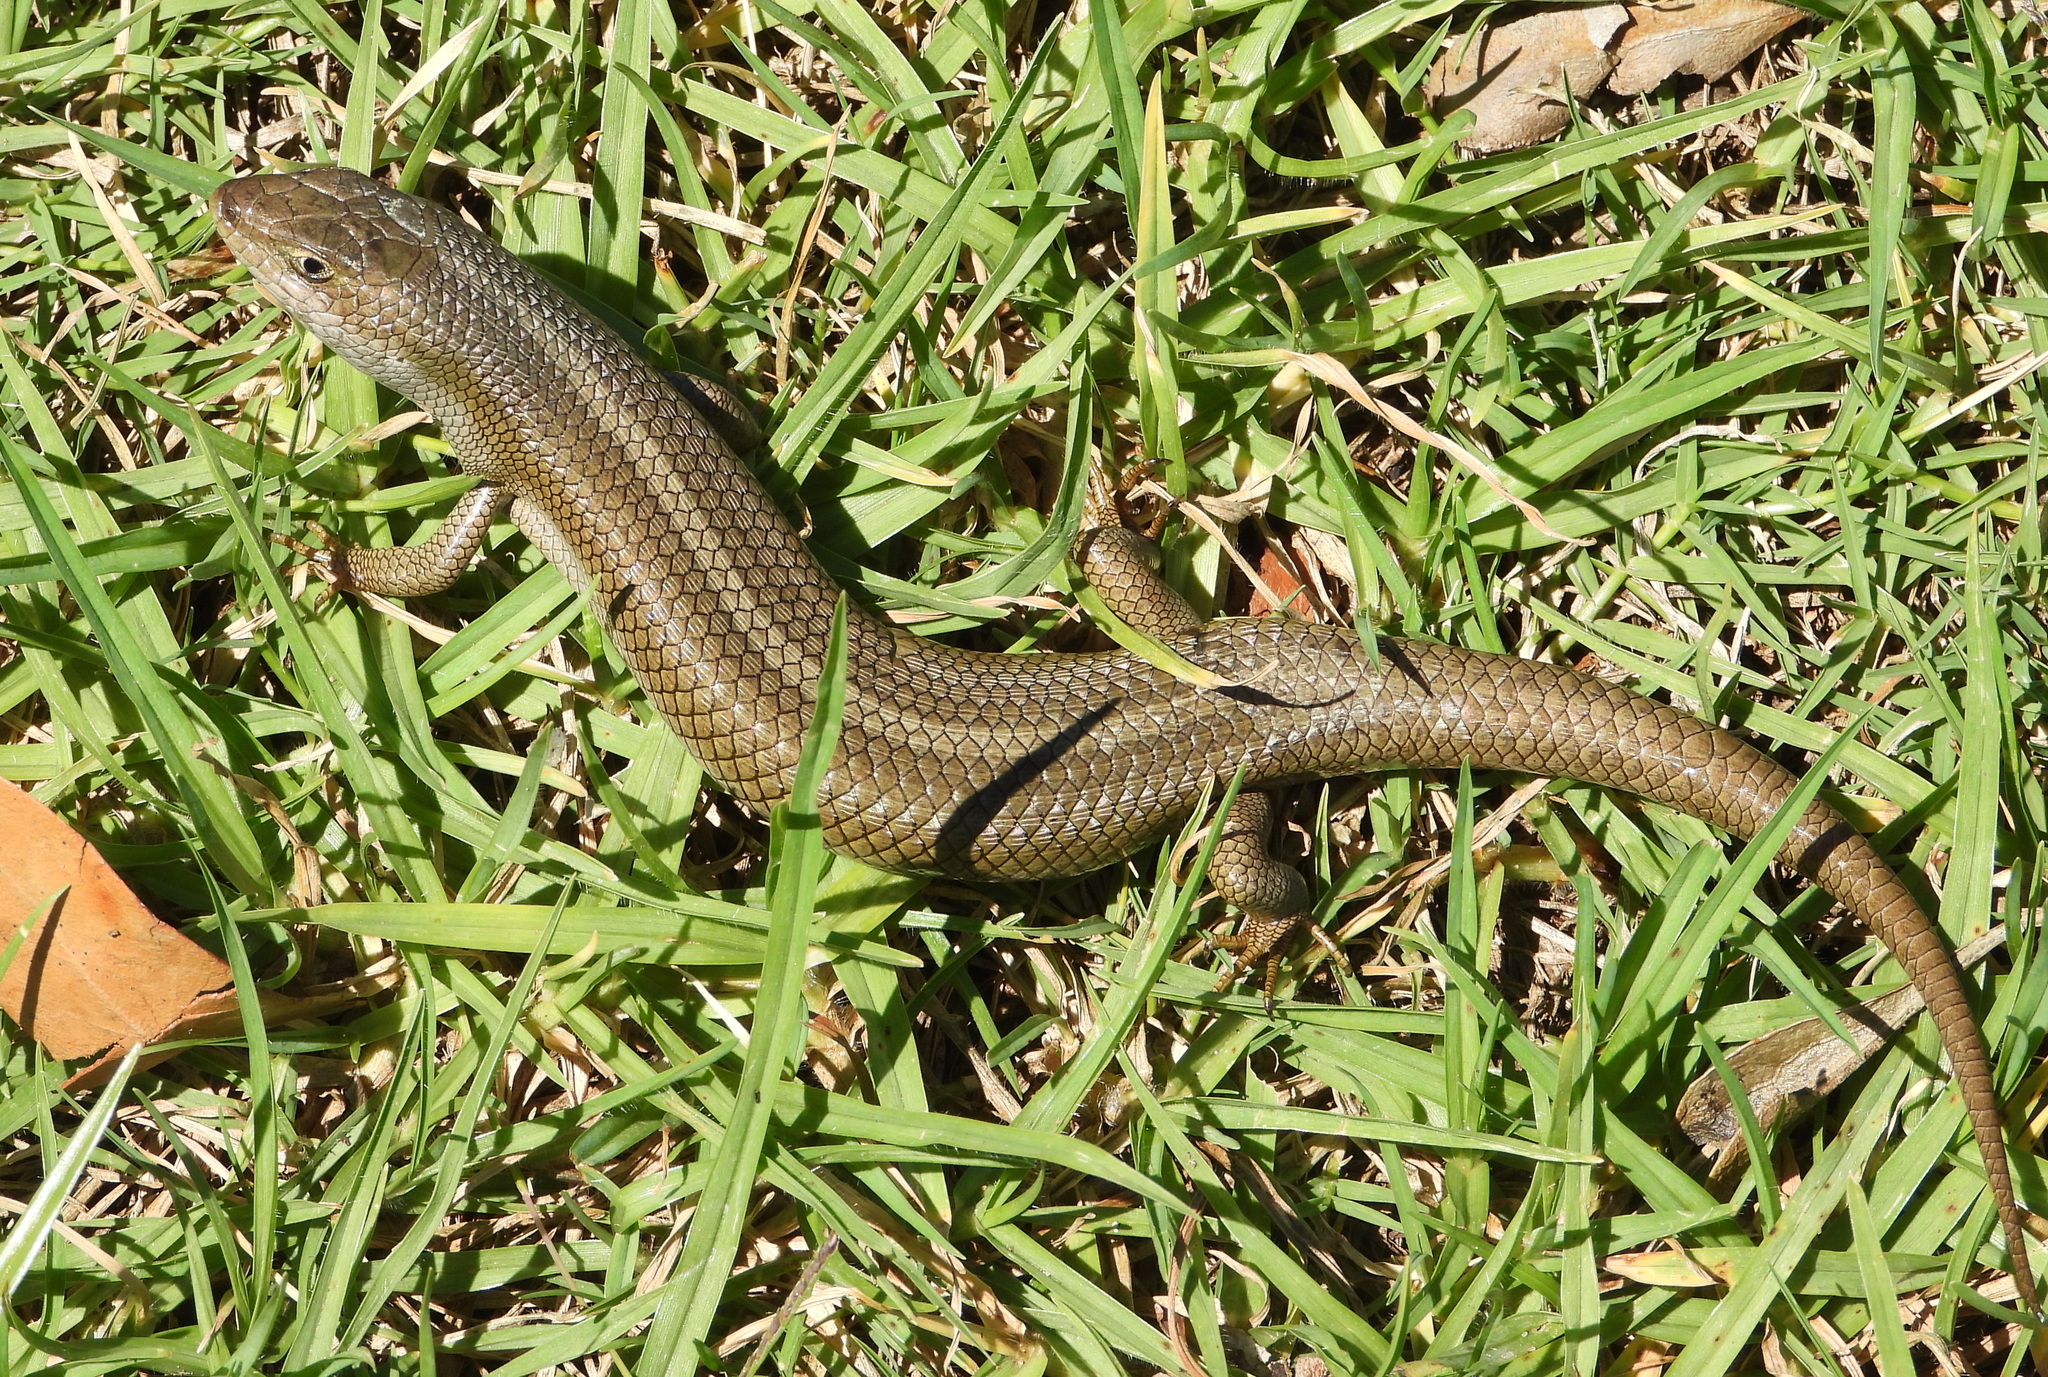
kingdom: Animalia
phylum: Chordata
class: Squamata
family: Scincidae
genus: Trachylepis
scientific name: Trachylepis capensis
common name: Cape skink
